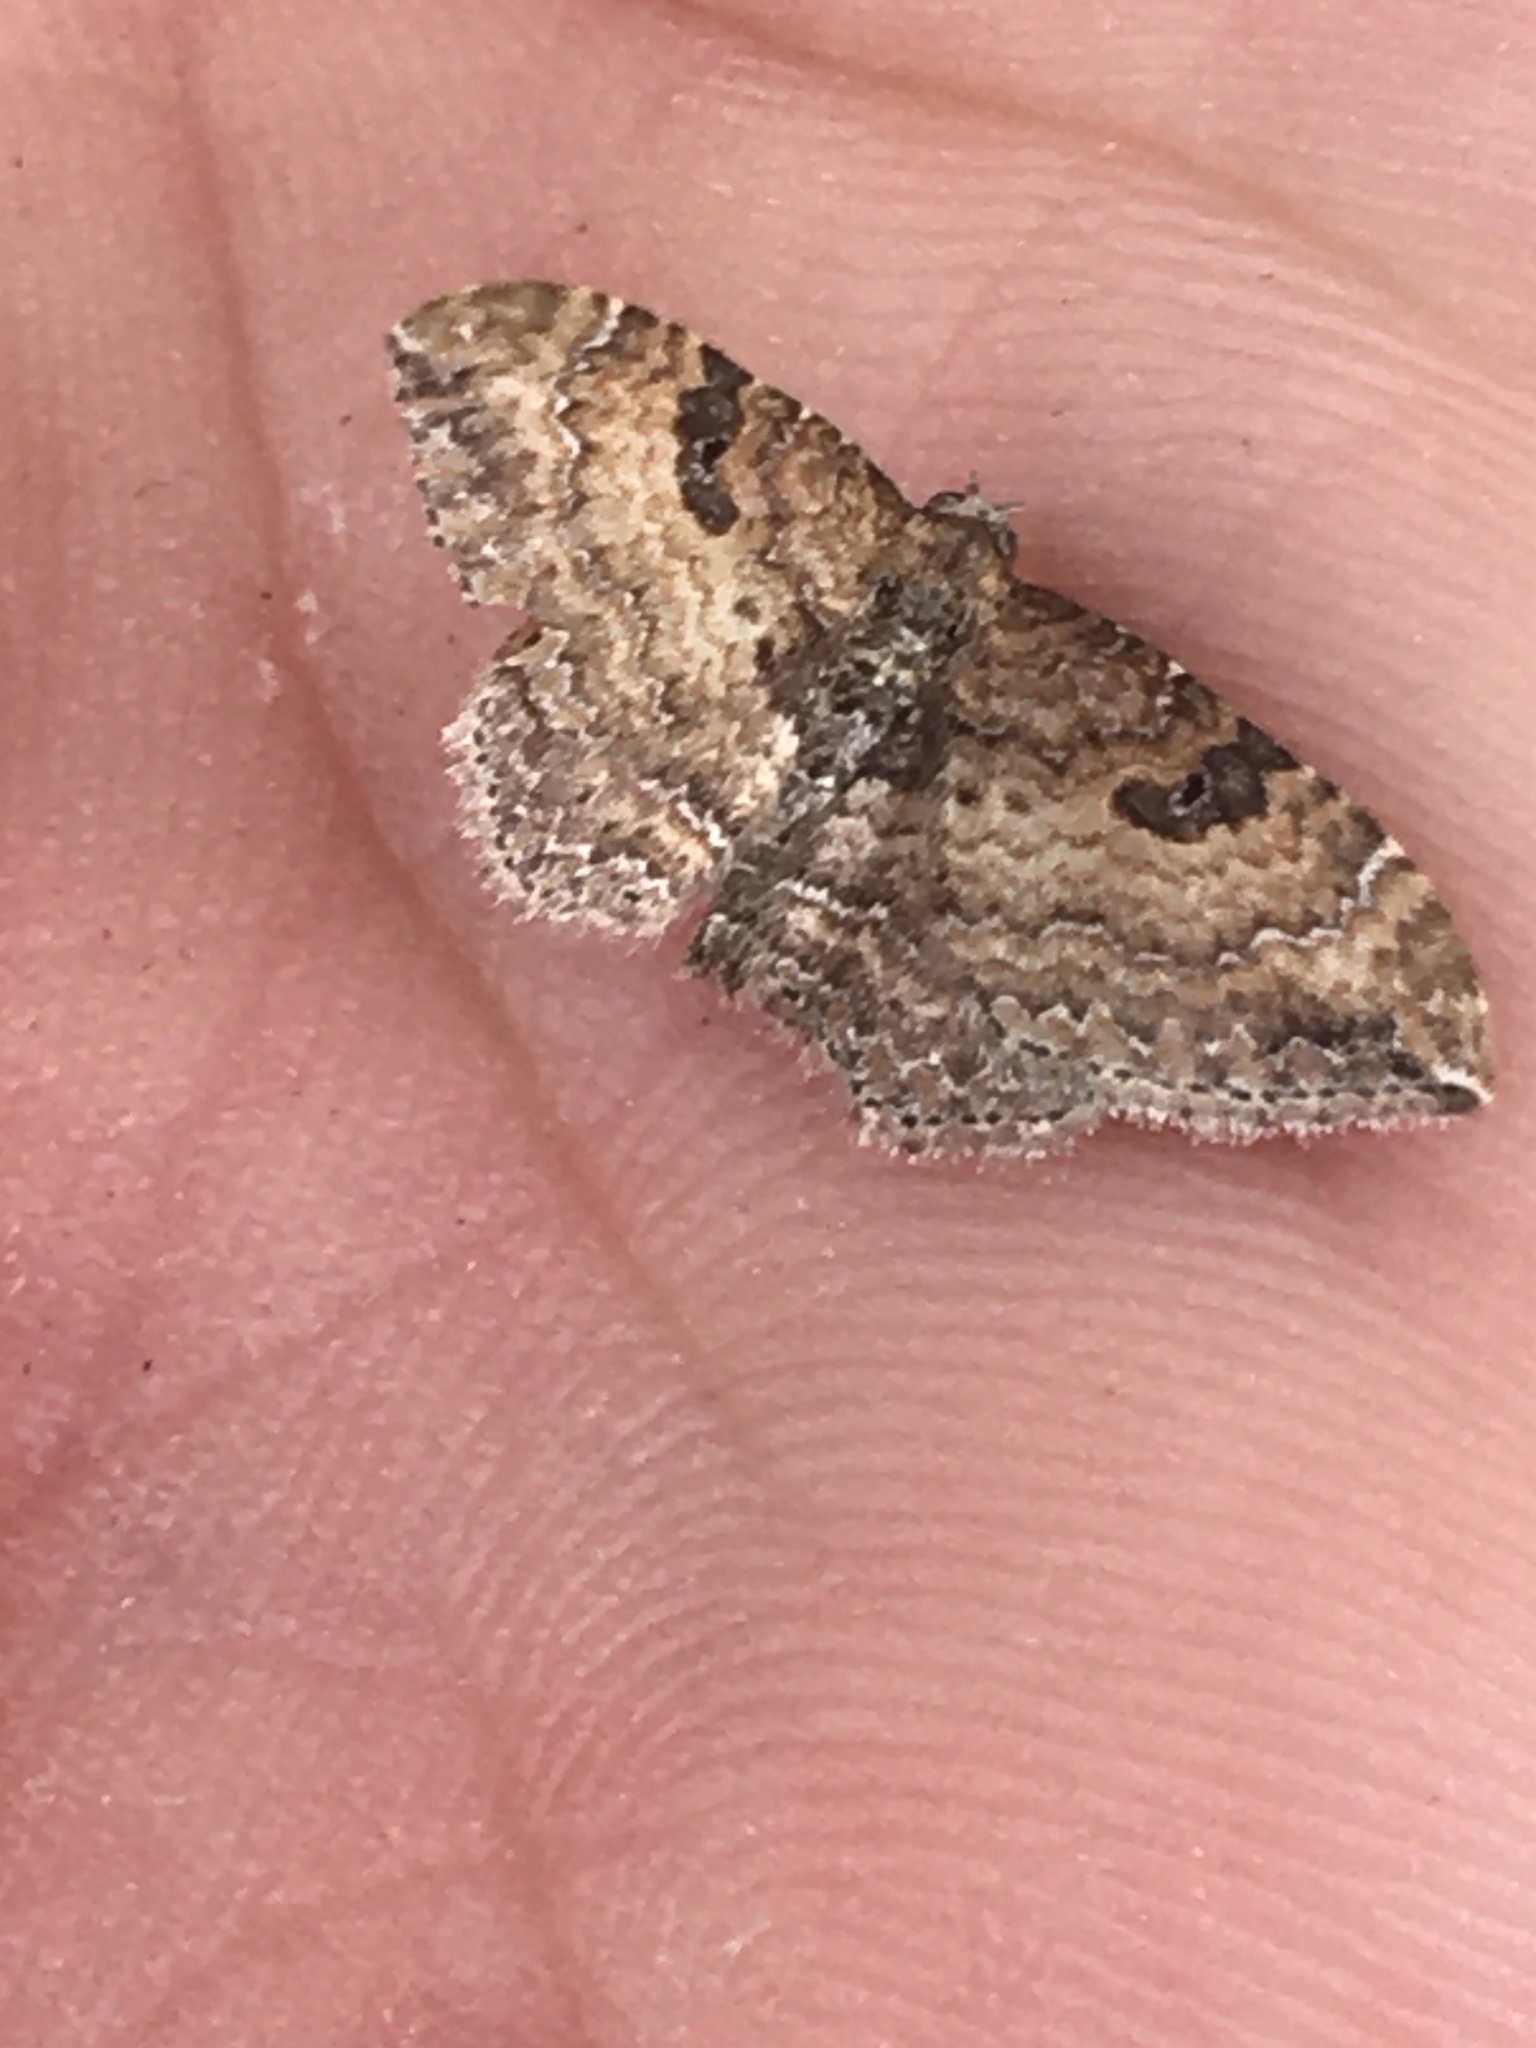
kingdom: Animalia
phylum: Arthropoda
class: Insecta
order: Lepidoptera
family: Geometridae
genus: Orthonama
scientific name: Orthonama obstipata
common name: The gem
